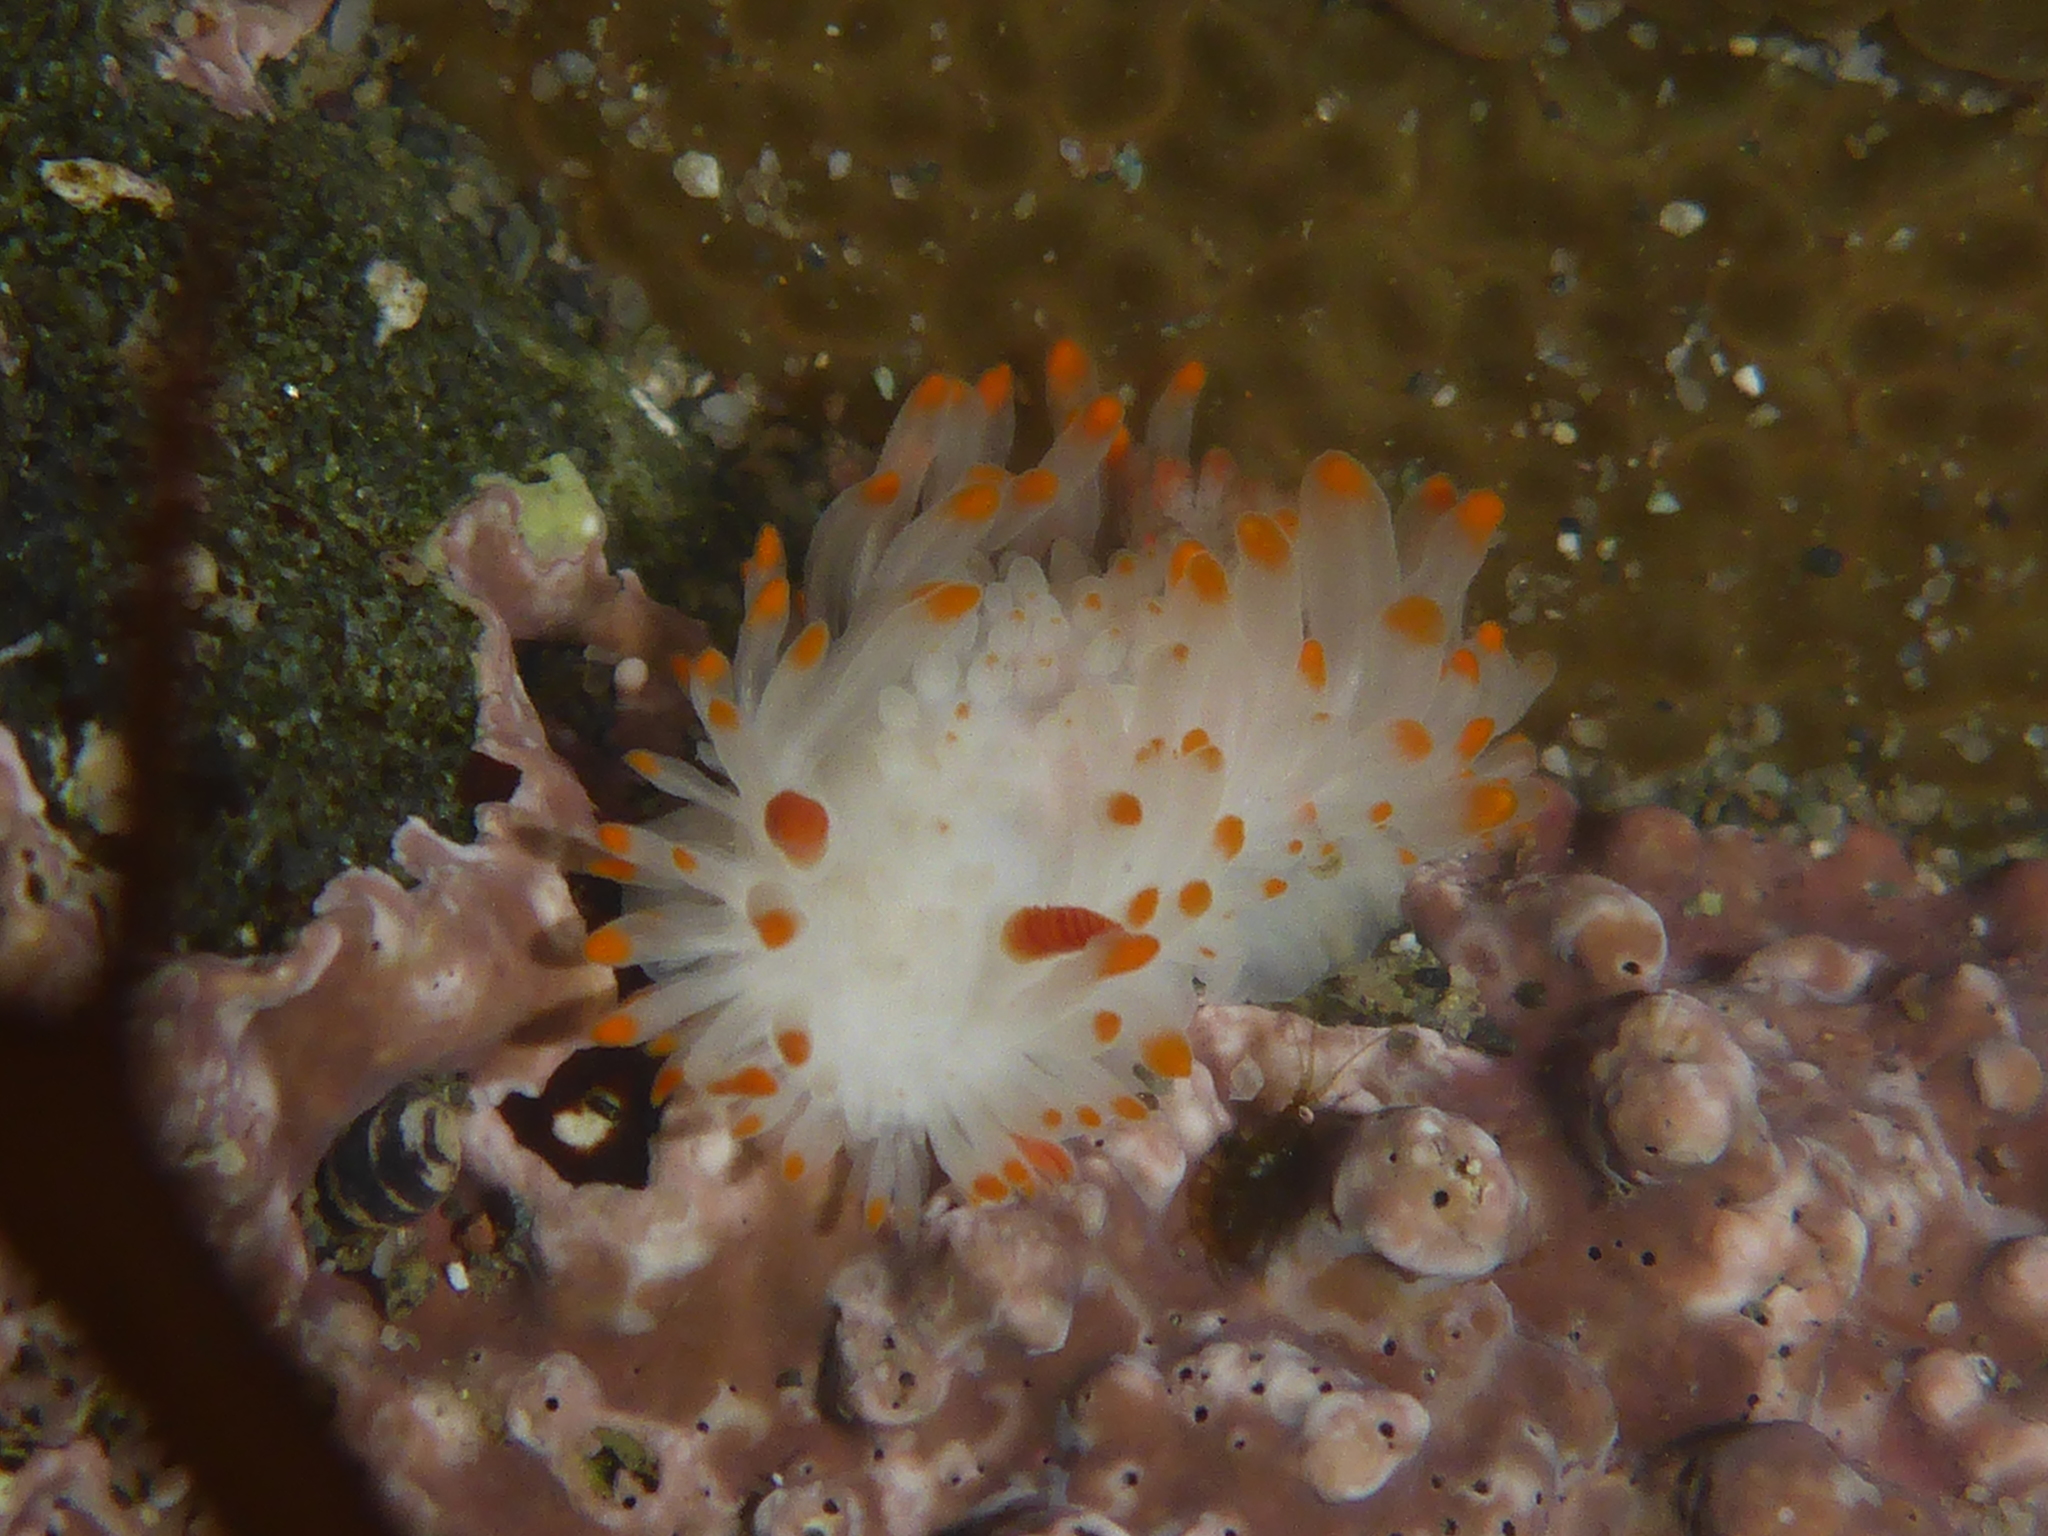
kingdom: Animalia
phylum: Mollusca
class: Gastropoda
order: Nudibranchia
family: Polyceridae
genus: Limacia
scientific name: Limacia cockerelli
